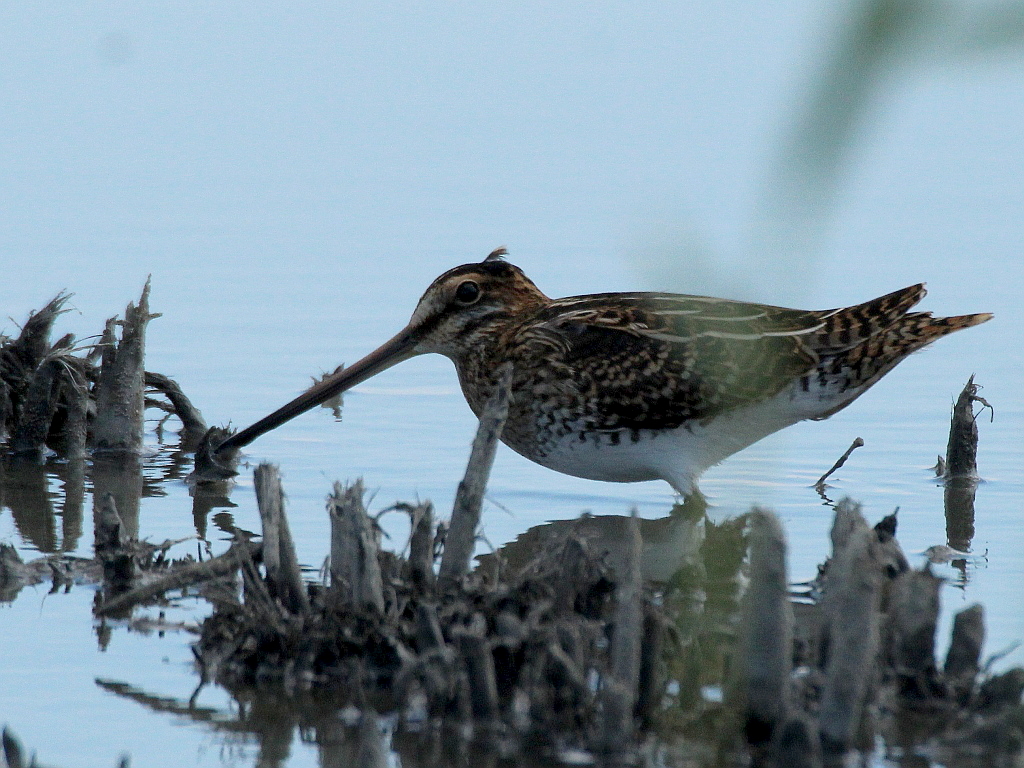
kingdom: Animalia
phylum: Chordata
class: Aves
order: Charadriiformes
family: Scolopacidae
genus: Gallinago
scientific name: Gallinago gallinago
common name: Common snipe
